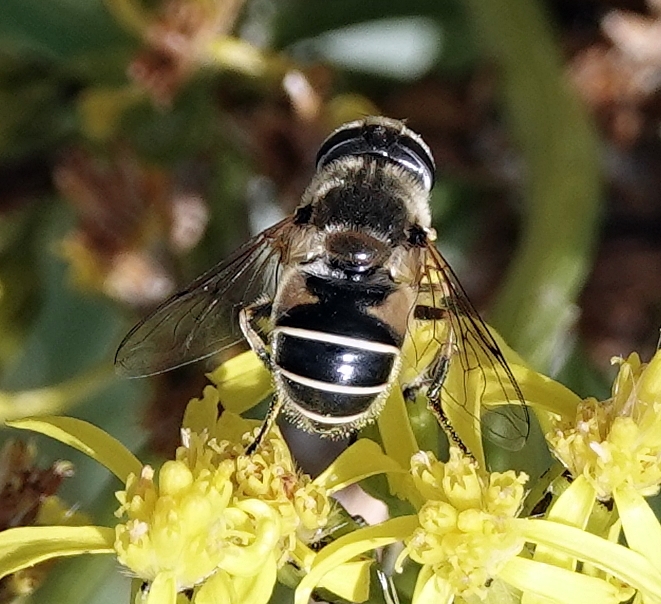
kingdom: Animalia
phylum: Arthropoda
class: Insecta
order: Diptera
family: Syrphidae
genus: Eristalis
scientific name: Eristalis hirta
